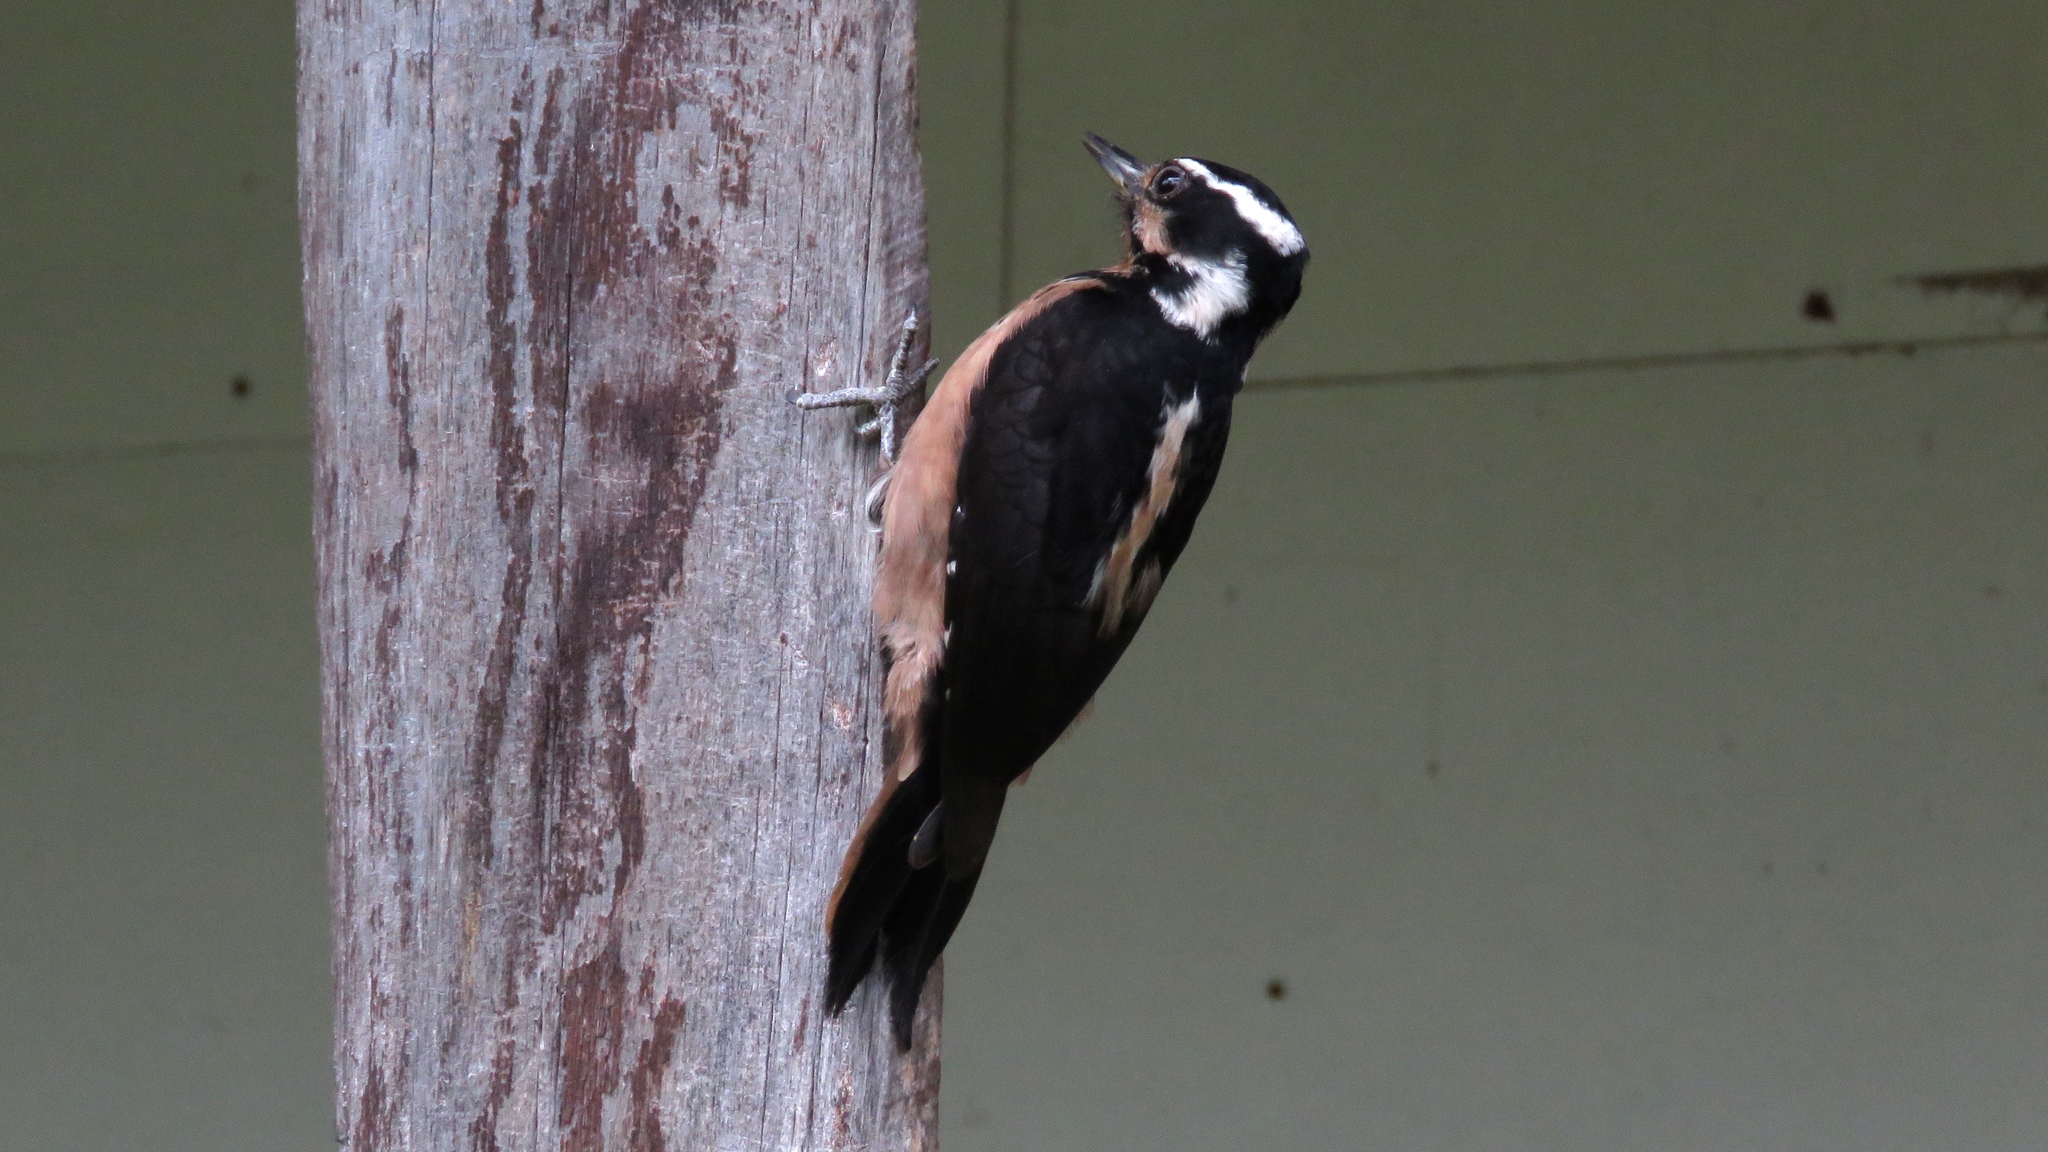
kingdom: Animalia
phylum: Chordata
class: Aves
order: Piciformes
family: Picidae
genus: Leuconotopicus
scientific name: Leuconotopicus villosus
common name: Hairy woodpecker
